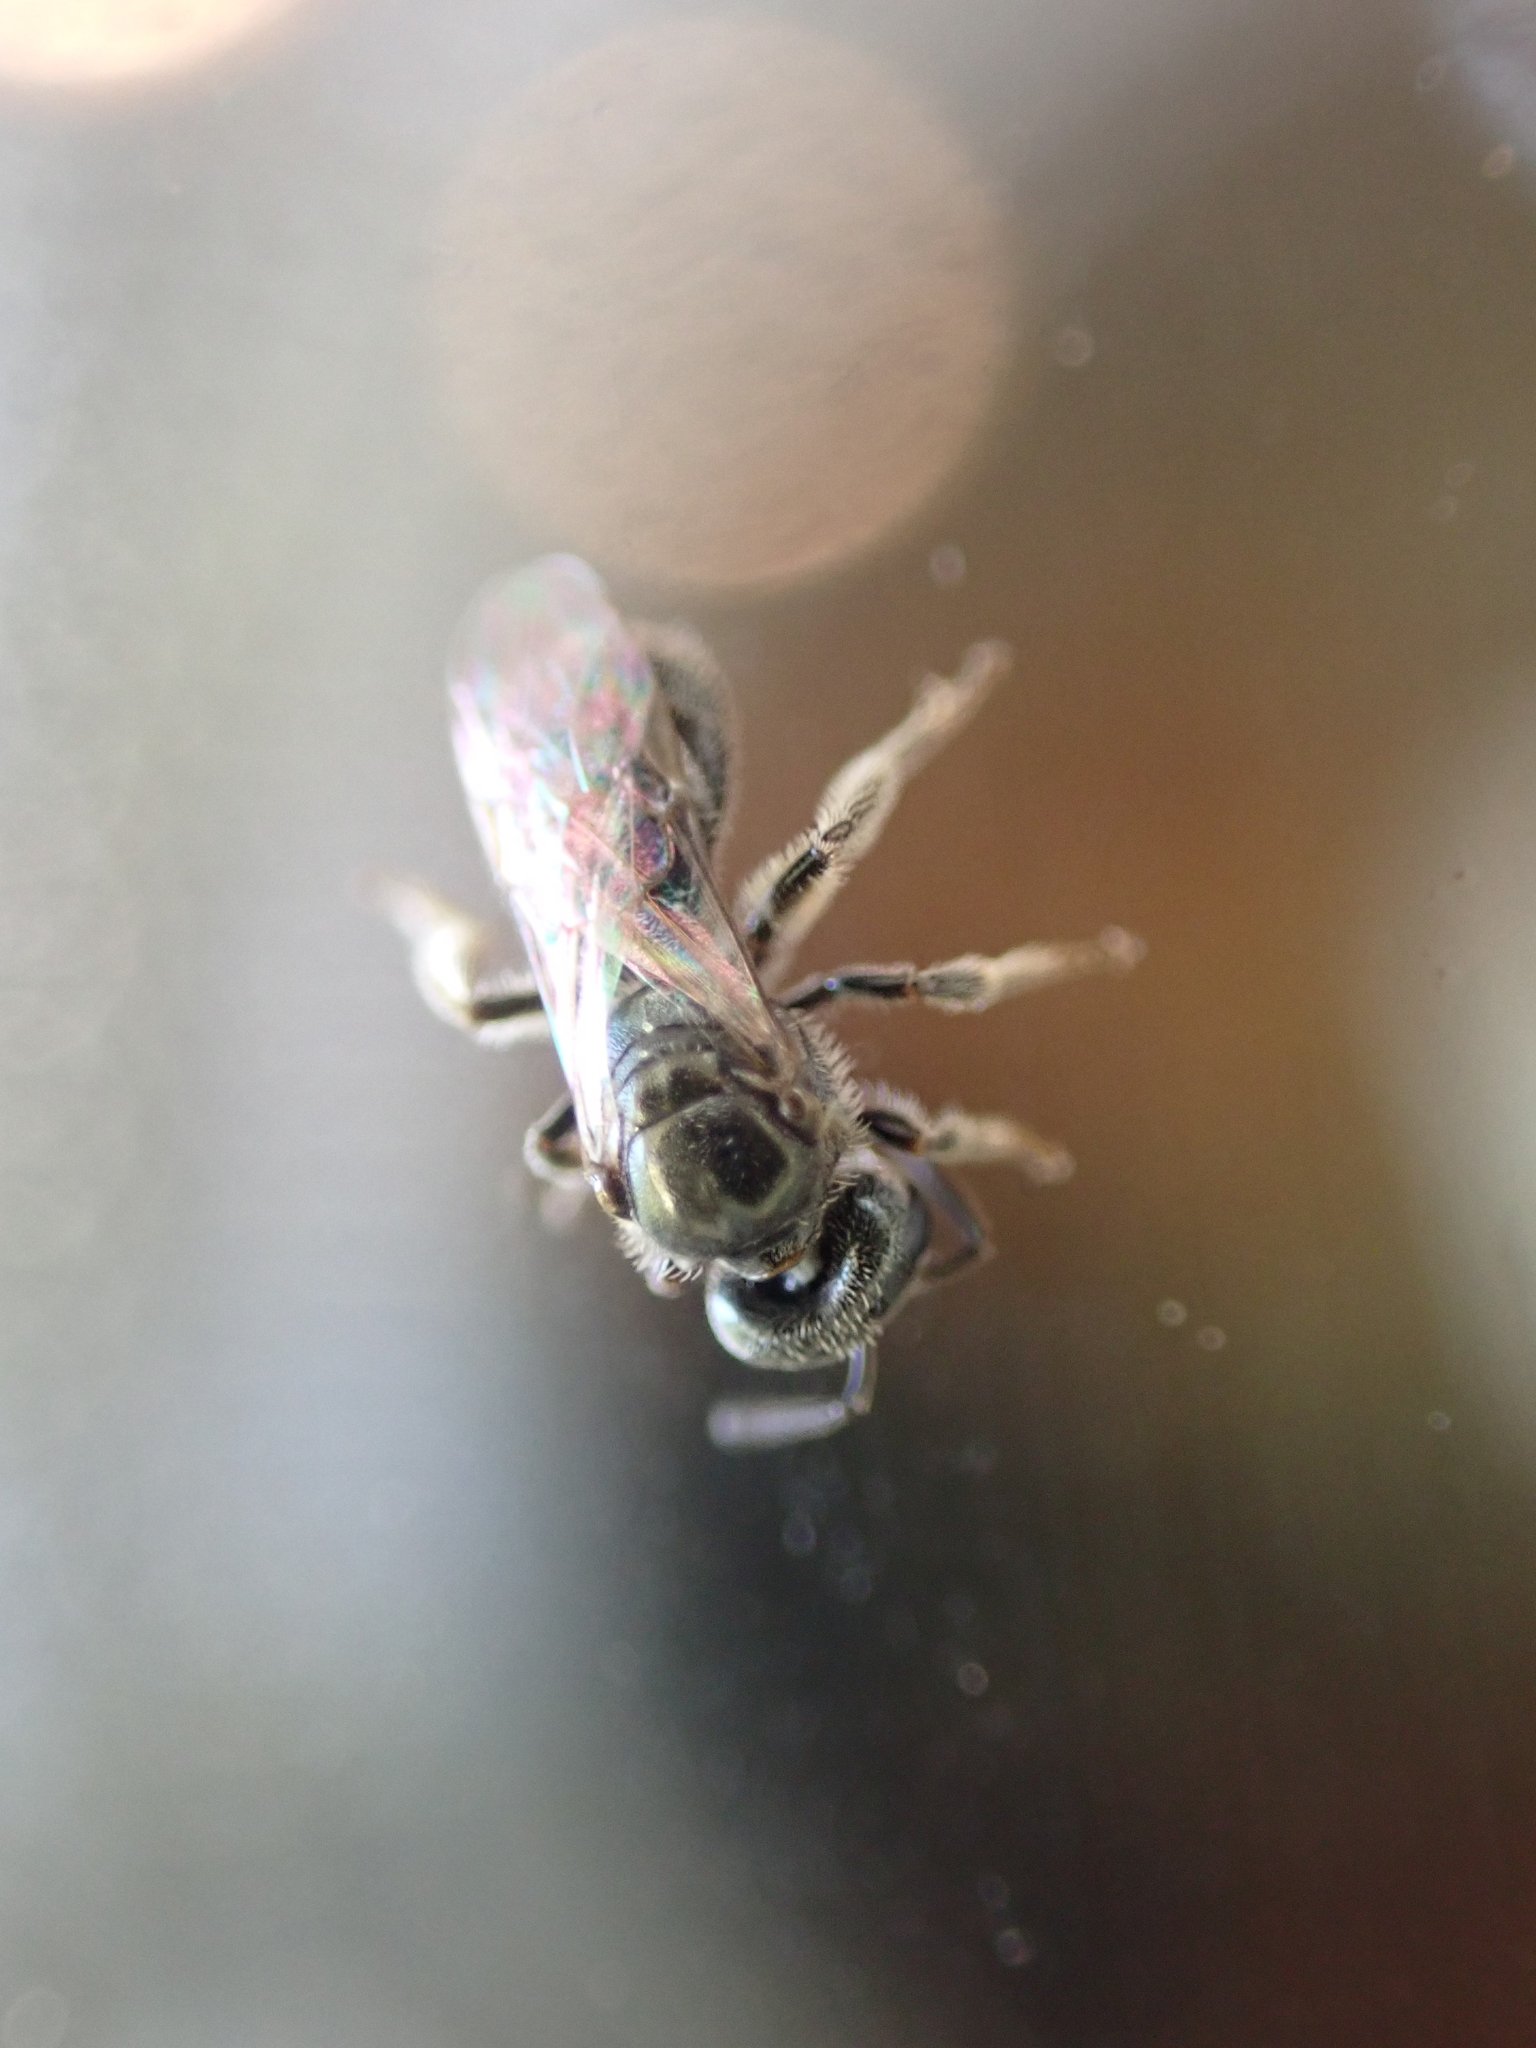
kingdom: Animalia
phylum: Arthropoda
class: Insecta
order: Hymenoptera
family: Halictidae
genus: Lasioglossum
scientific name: Lasioglossum imitatum
